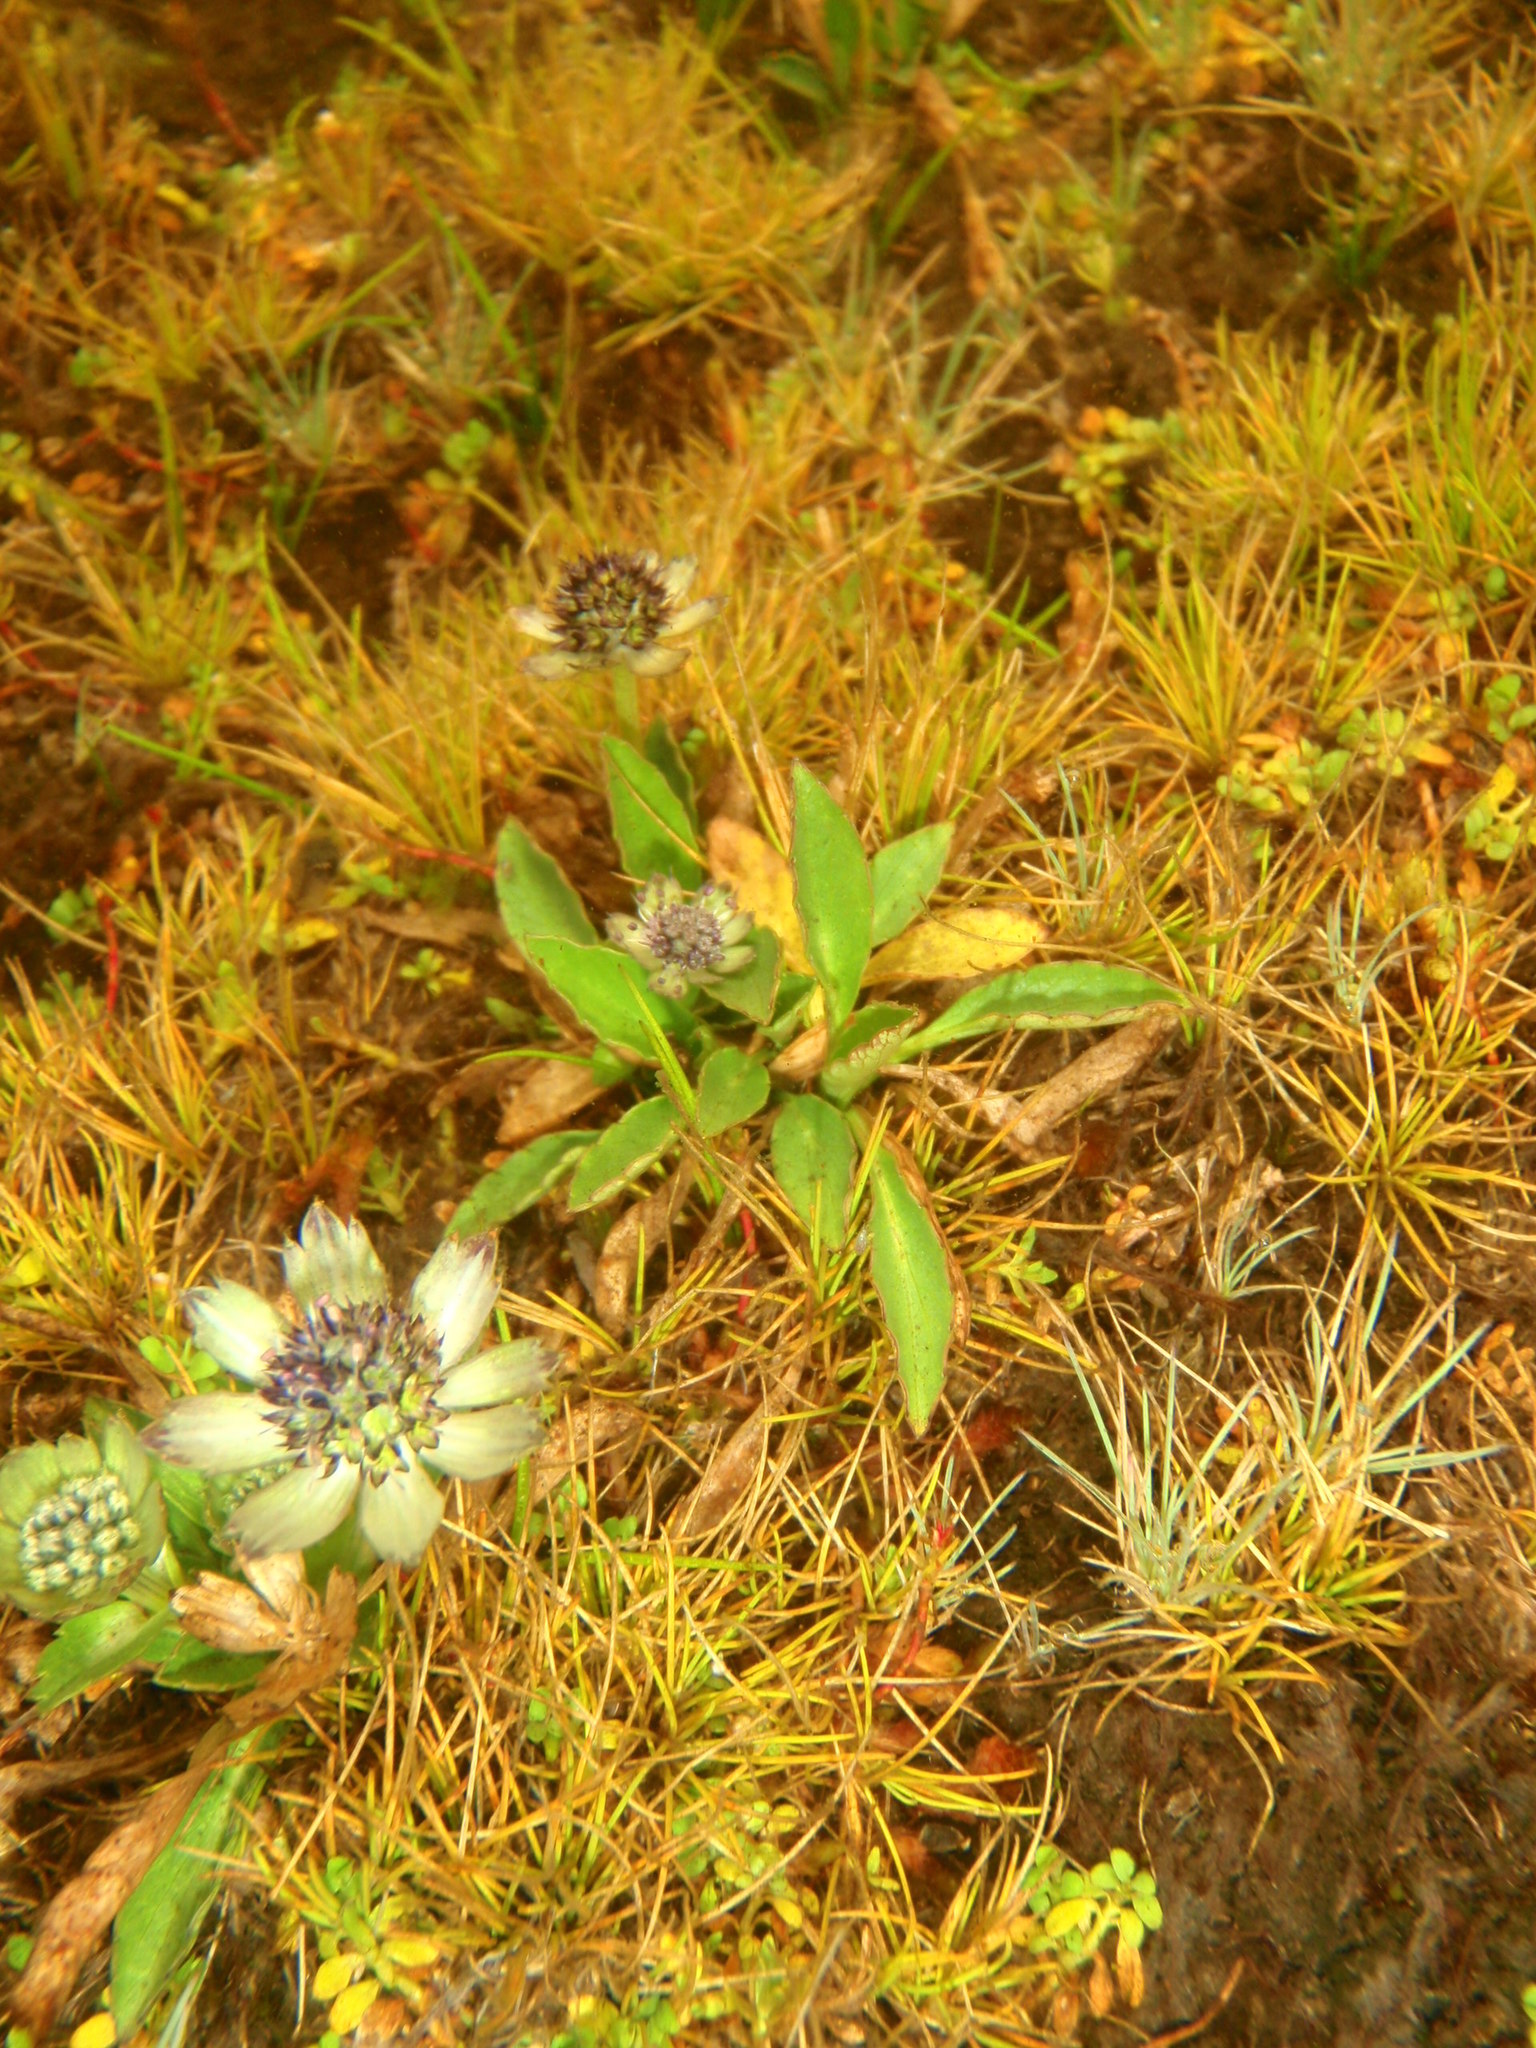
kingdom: Plantae
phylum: Tracheophyta
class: Magnoliopsida
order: Apiales
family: Apiaceae
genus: Eryngium
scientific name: Eryngium humile
